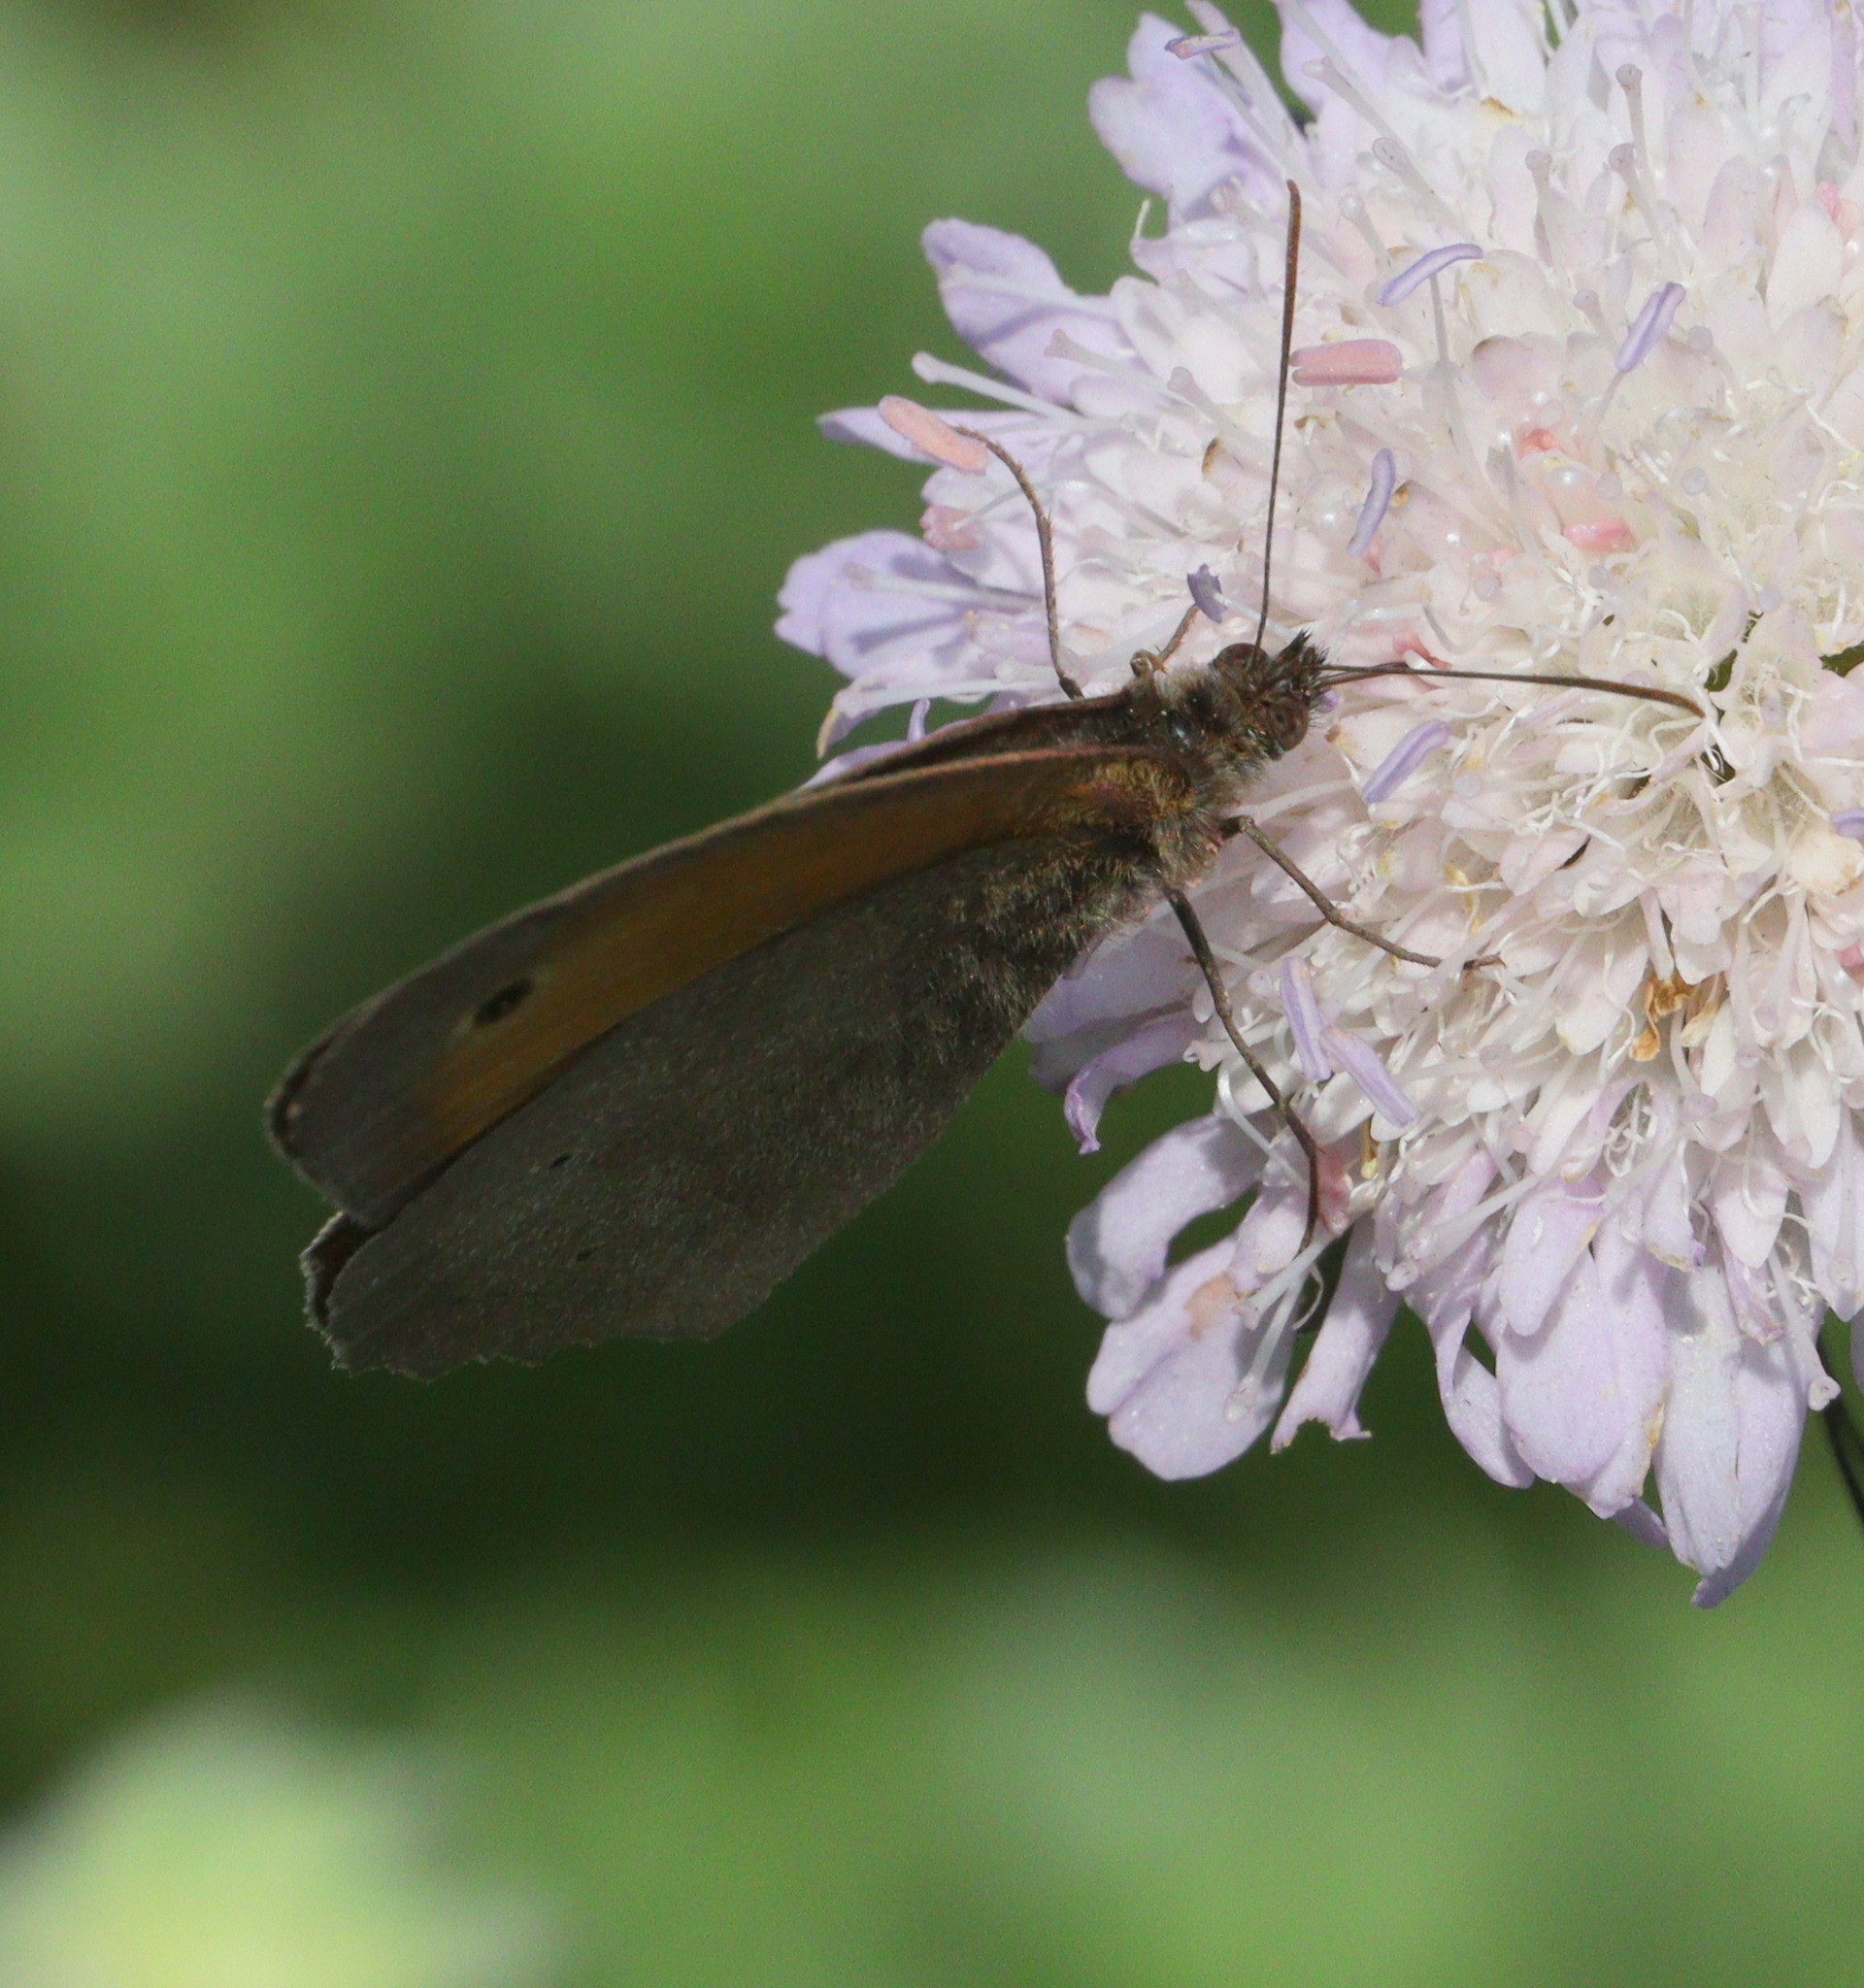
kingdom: Animalia
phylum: Arthropoda
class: Insecta
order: Lepidoptera
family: Nymphalidae
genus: Maniola
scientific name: Maniola jurtina
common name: Meadow brown
